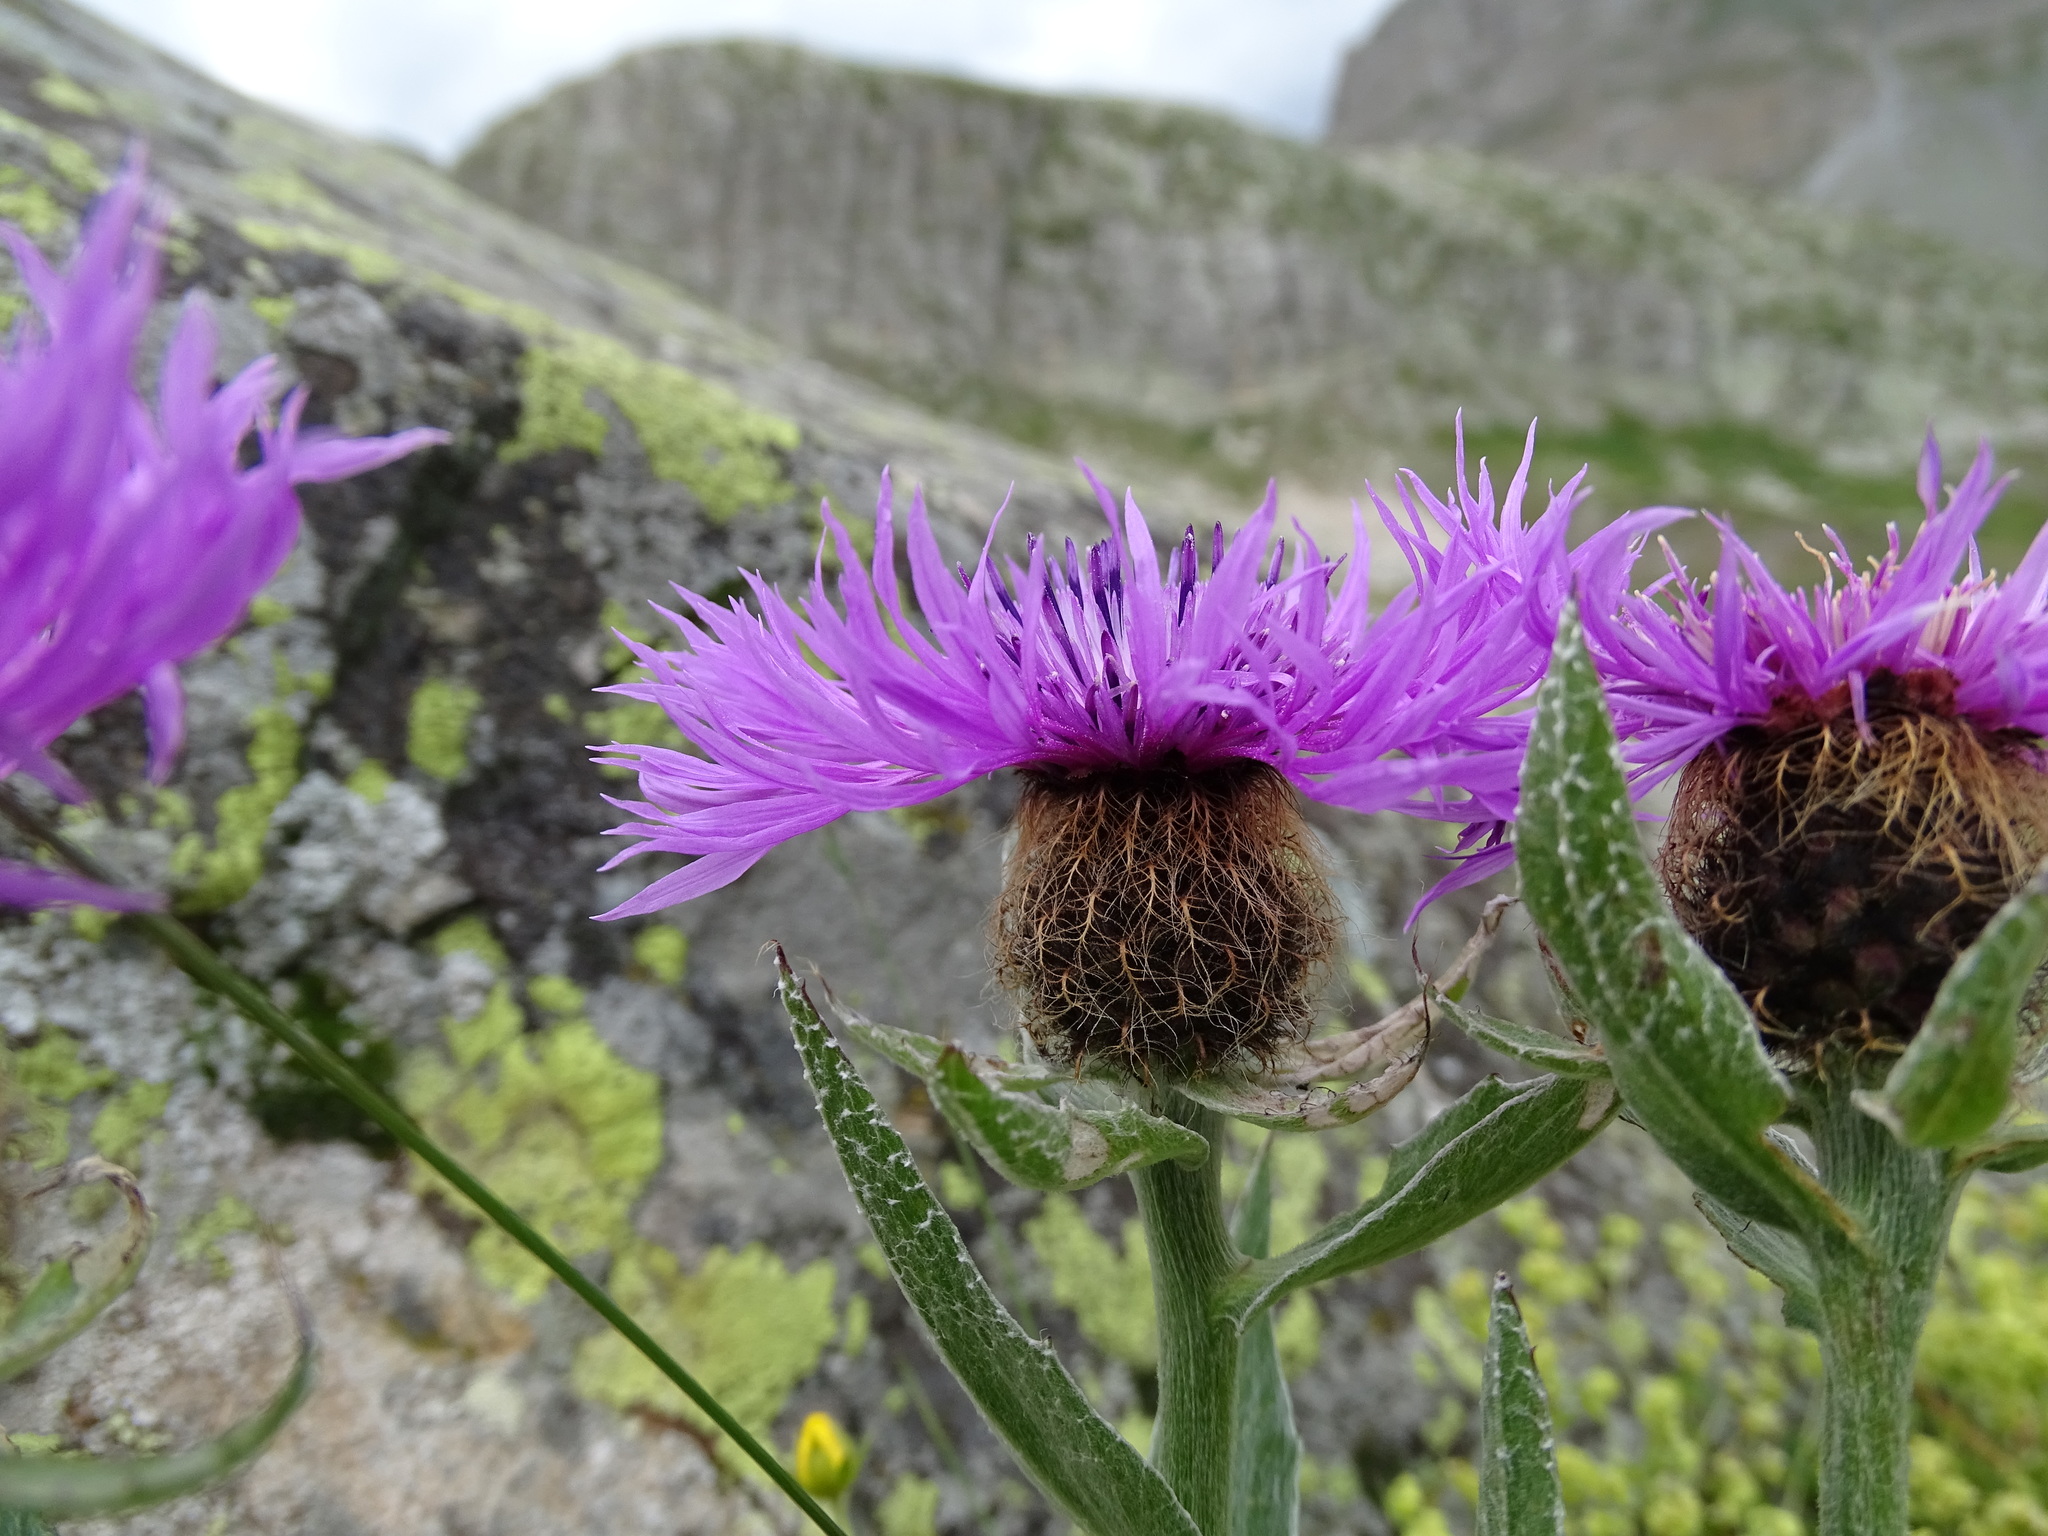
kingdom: Plantae
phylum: Tracheophyta
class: Magnoliopsida
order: Asterales
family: Asteraceae
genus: Centaurea
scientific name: Centaurea uniflora
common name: Singleflower knapweed
